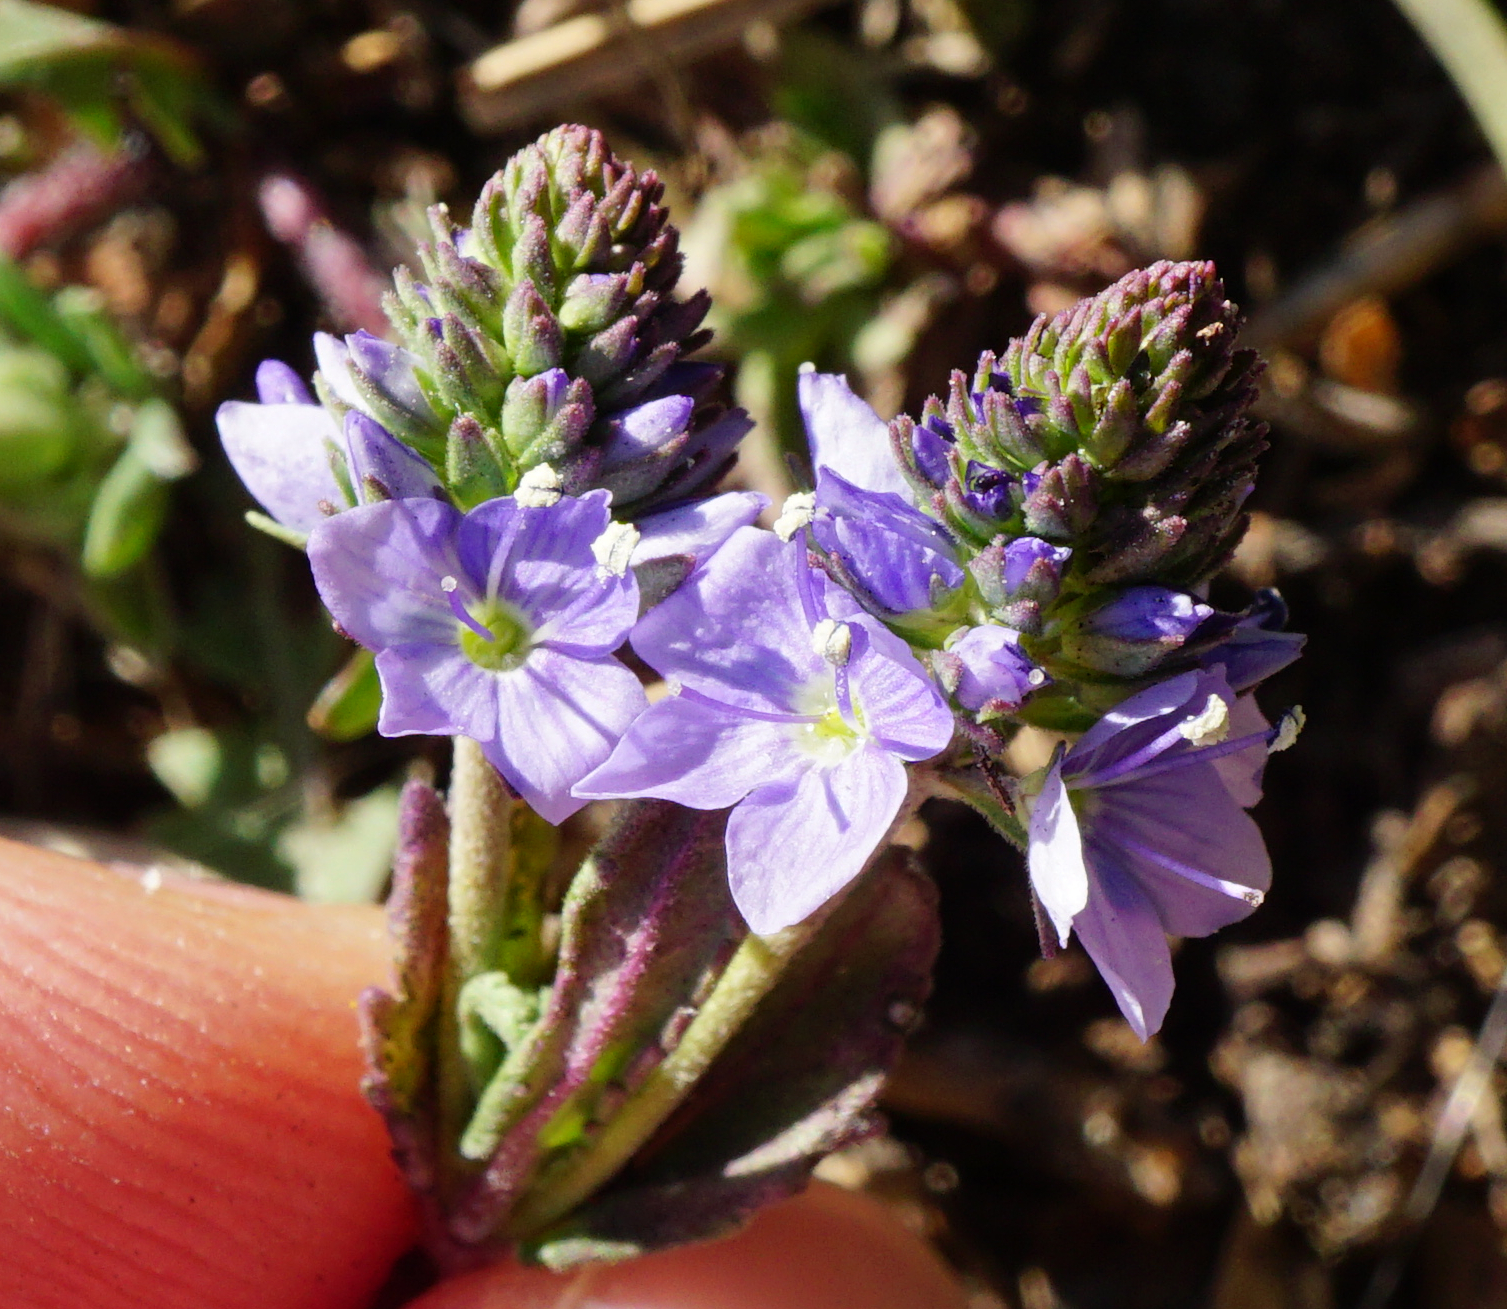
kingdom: Plantae
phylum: Tracheophyta
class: Magnoliopsida
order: Lamiales
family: Plantaginaceae
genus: Veronica
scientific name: Veronica prostrata
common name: Prostrate speedwell
